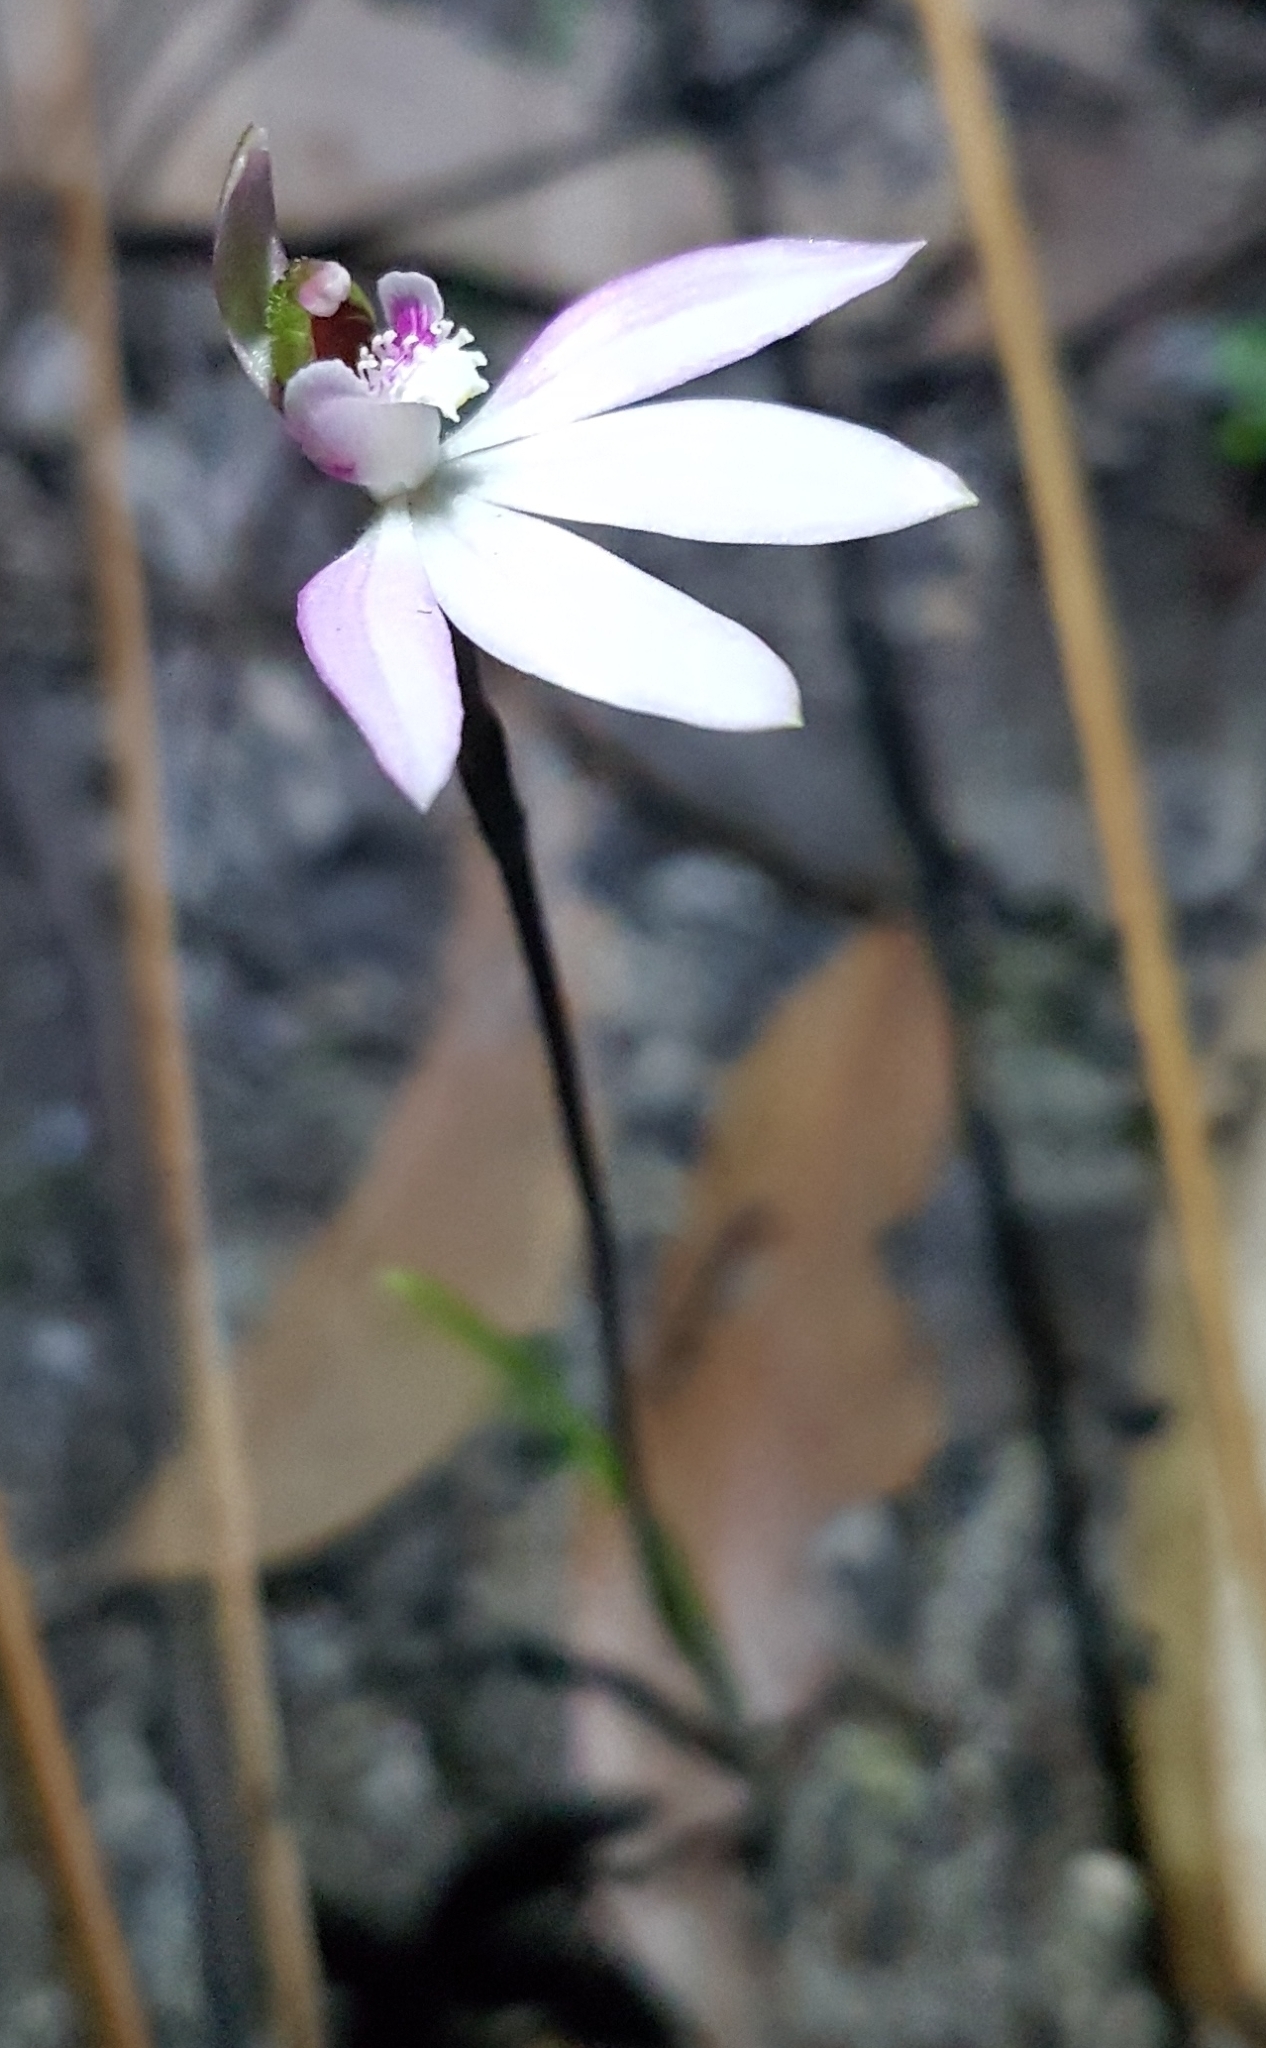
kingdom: Plantae
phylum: Tracheophyta
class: Liliopsida
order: Asparagales
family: Orchidaceae
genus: Caladenia
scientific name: Caladenia maritima
